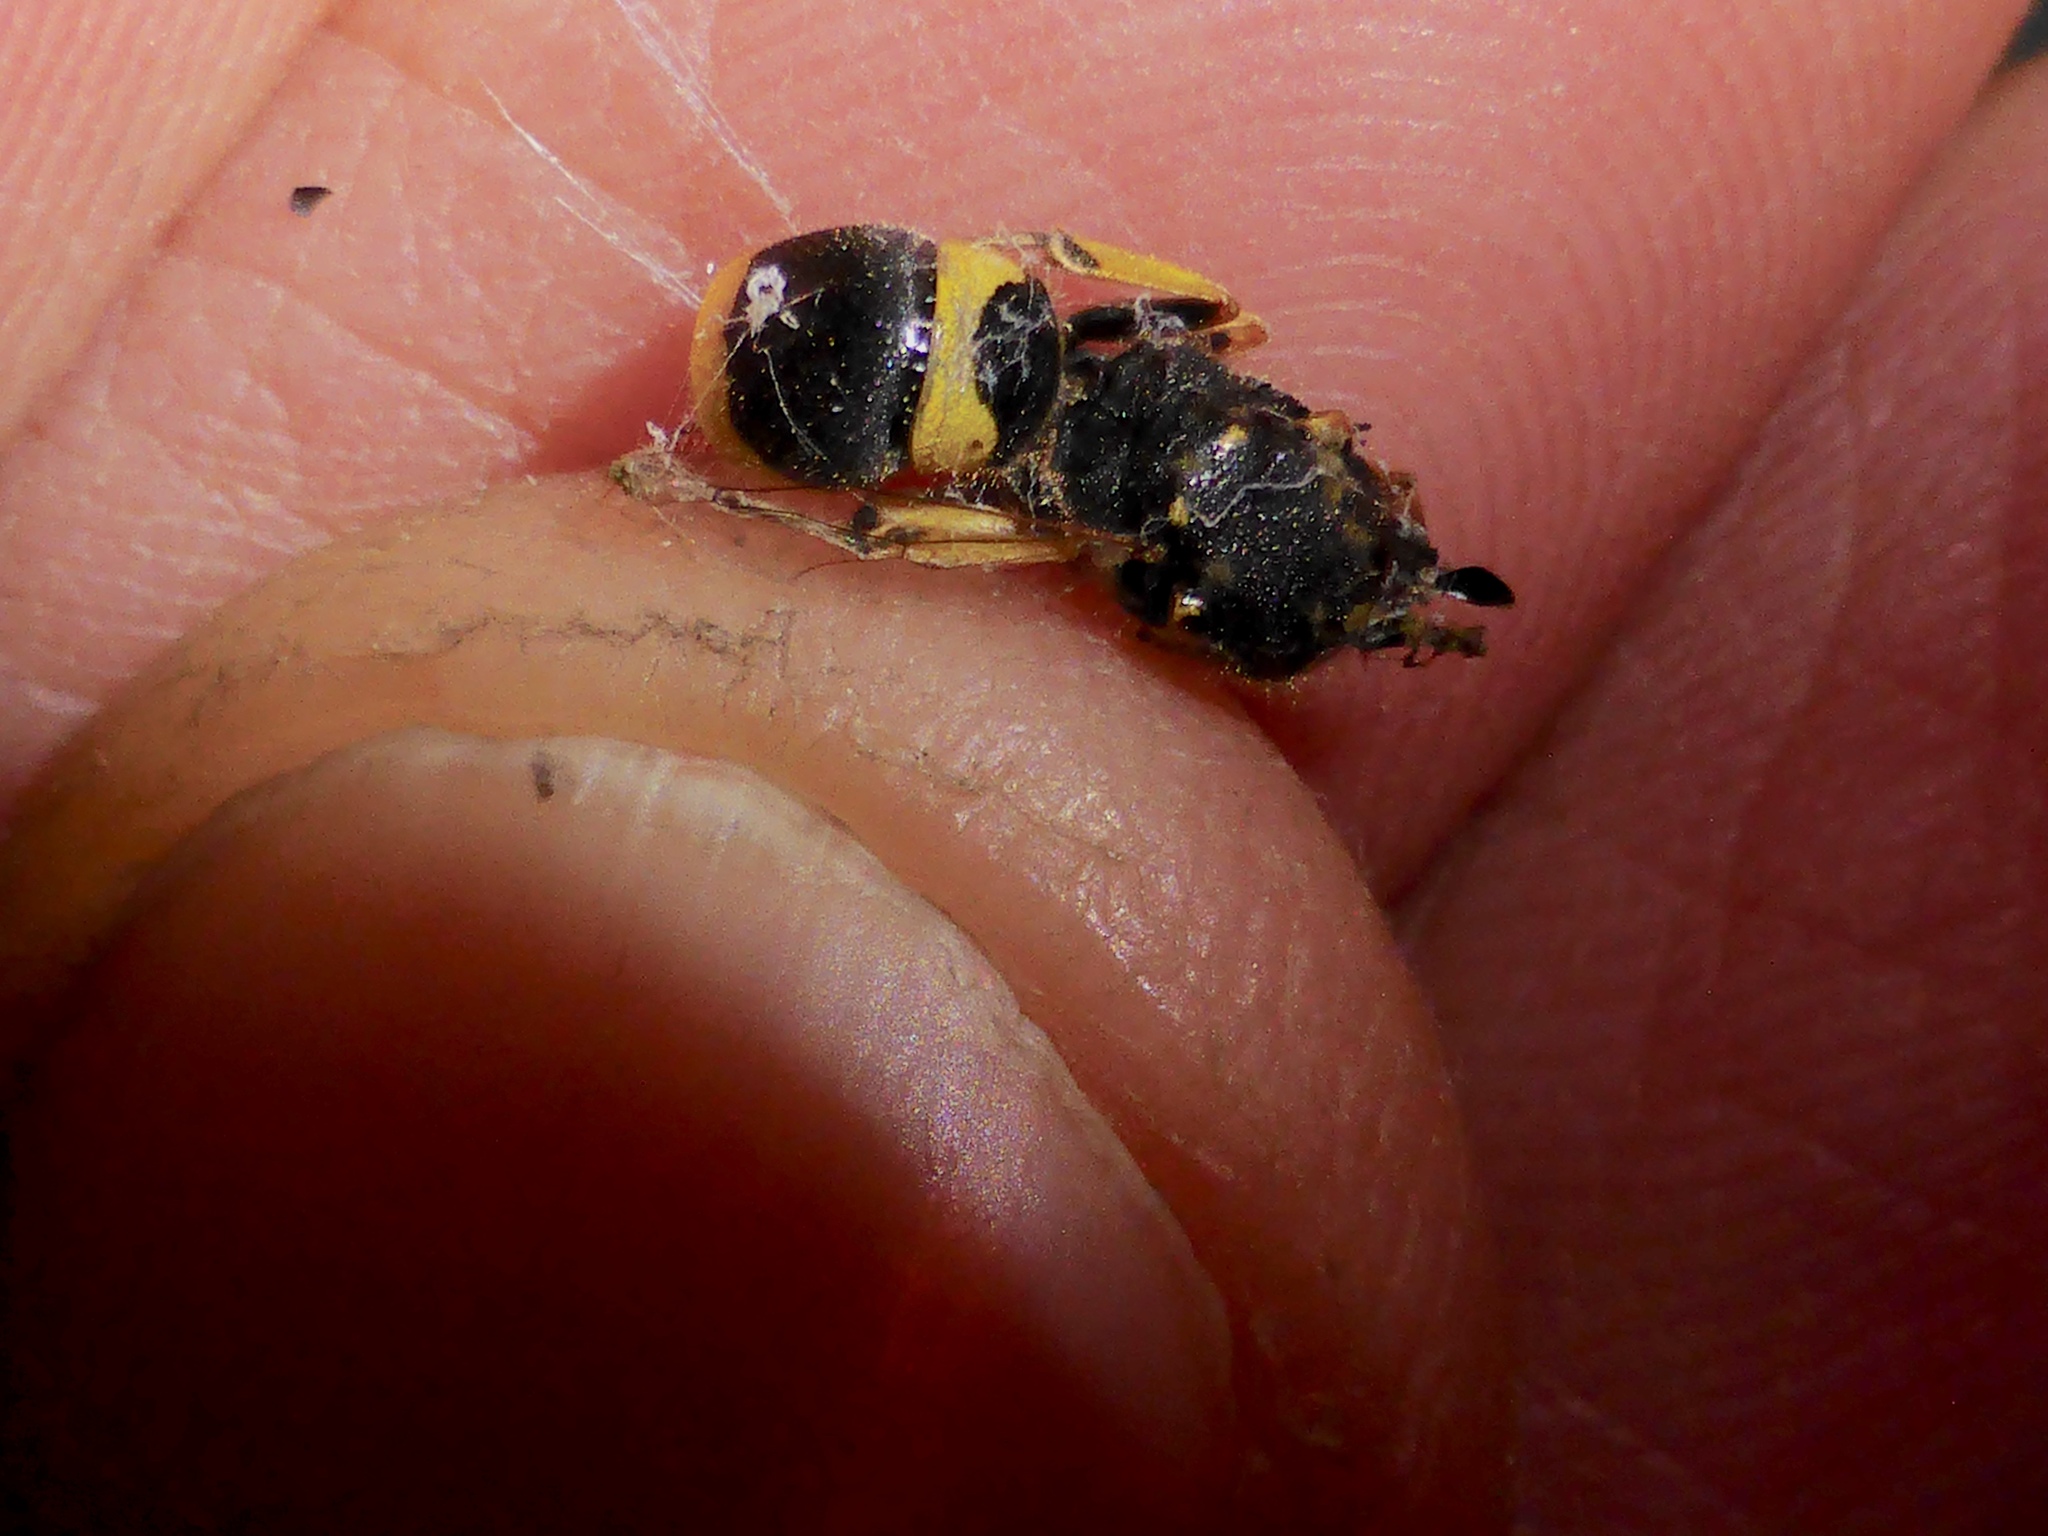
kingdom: Animalia
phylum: Arthropoda
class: Insecta
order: Hymenoptera
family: Vespidae
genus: Ancistrocerus
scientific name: Ancistrocerus gazella
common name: European tube wasp
